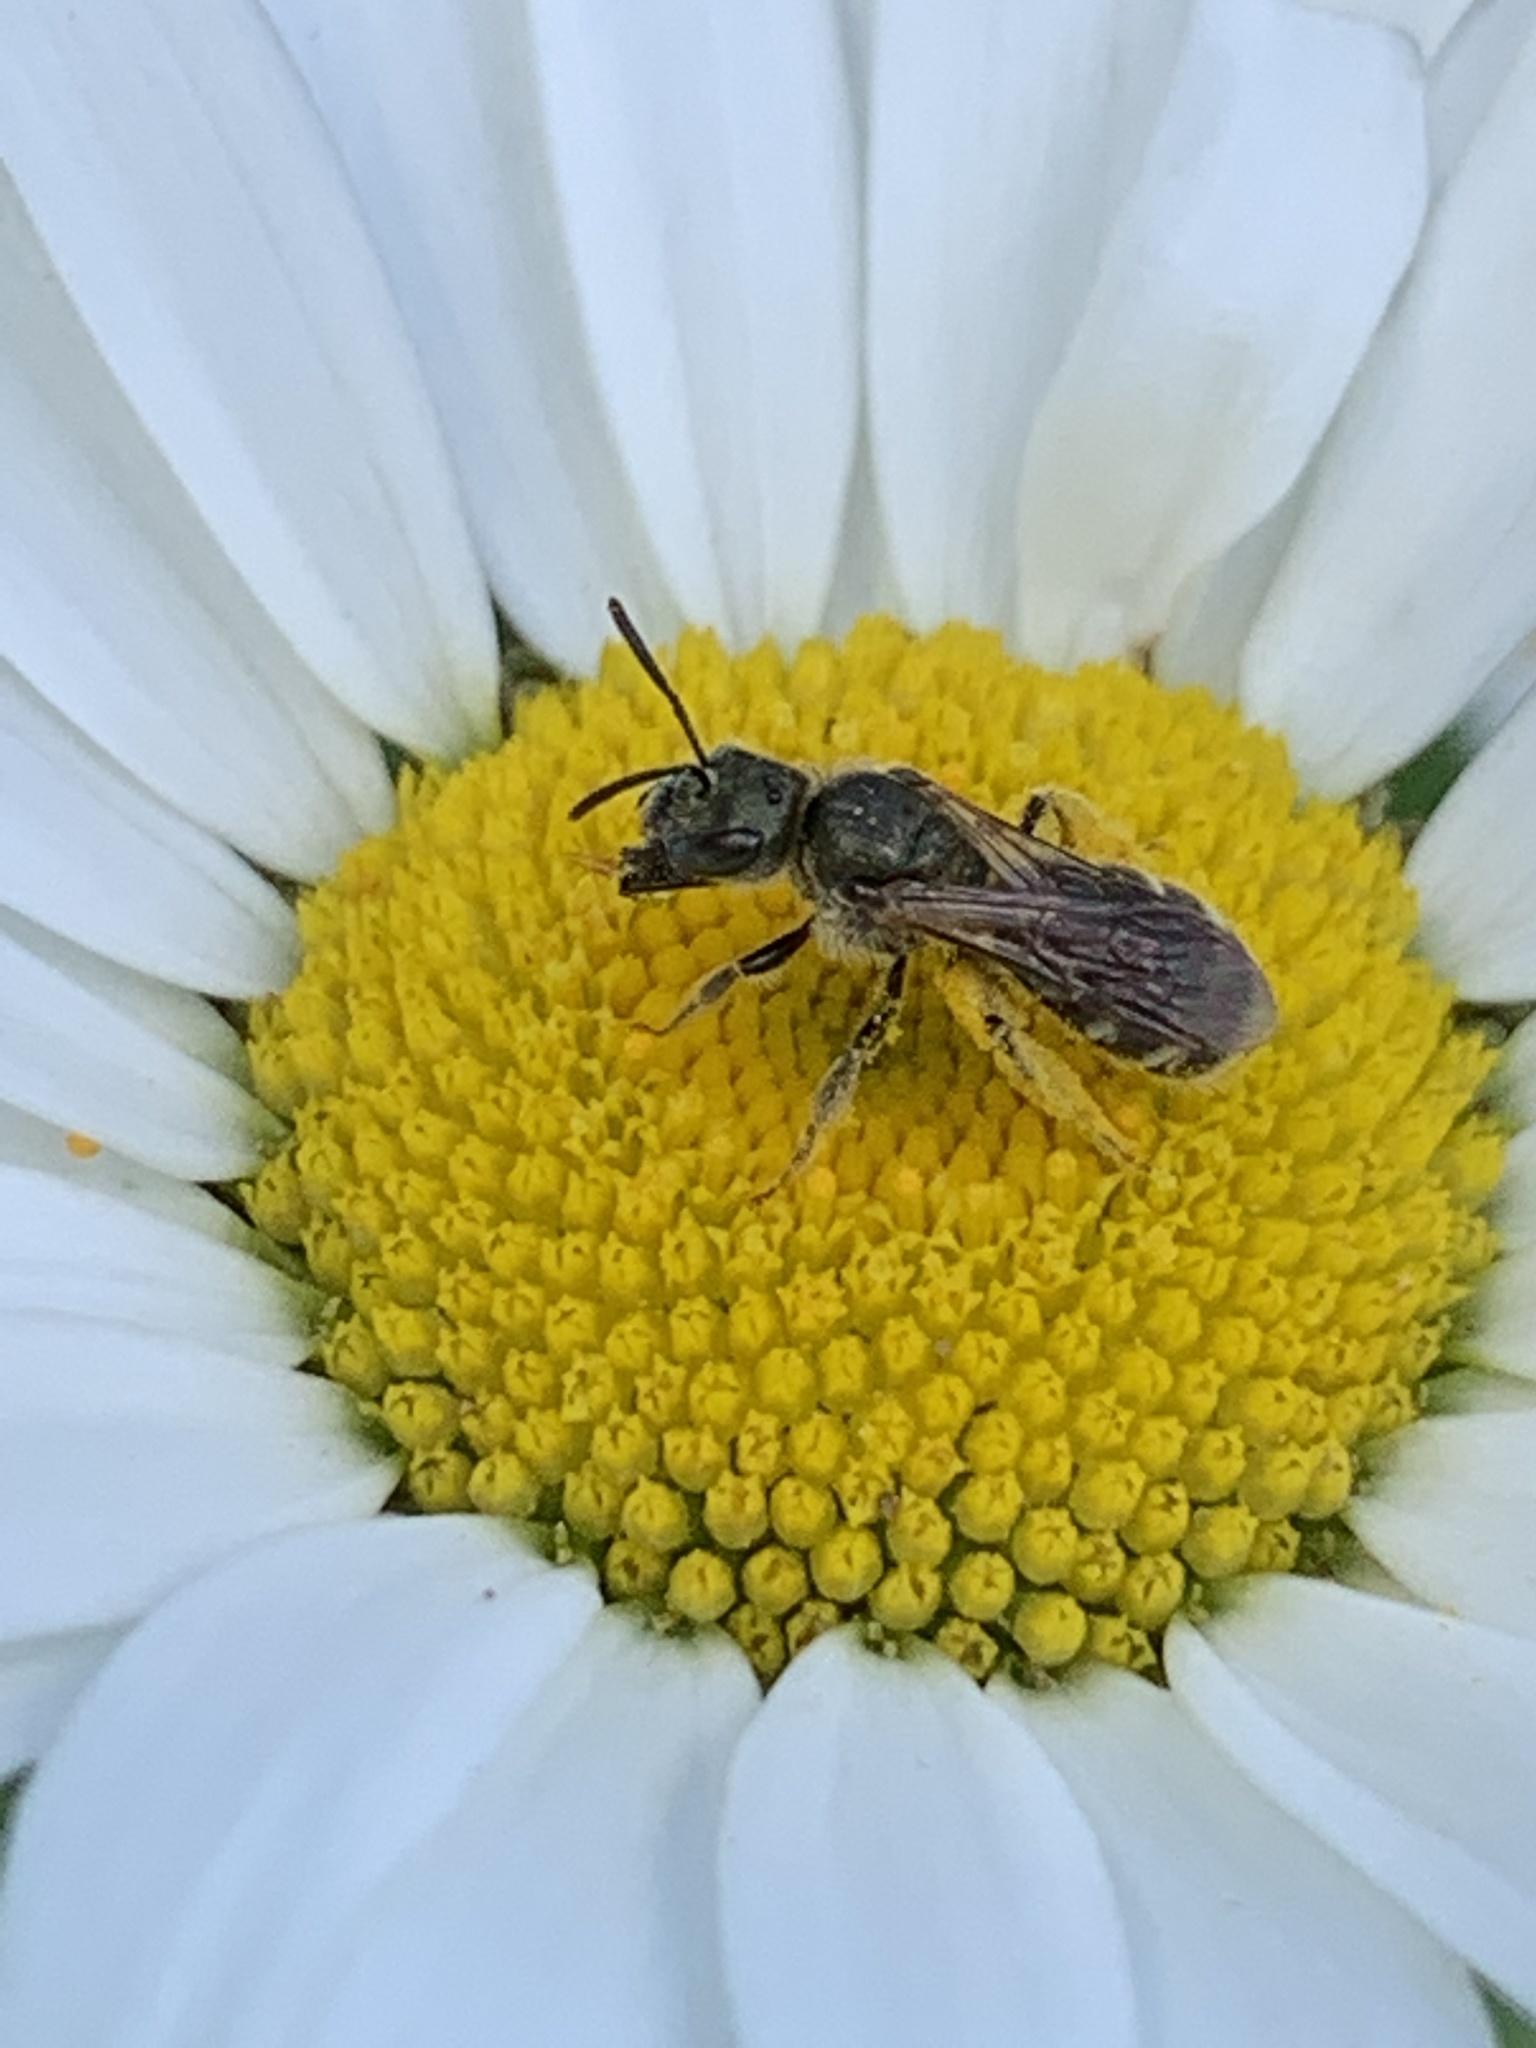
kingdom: Animalia
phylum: Arthropoda
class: Insecta
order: Hymenoptera
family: Halictidae
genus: Halictus
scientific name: Halictus confusus
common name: Southern bronze furrow bee
